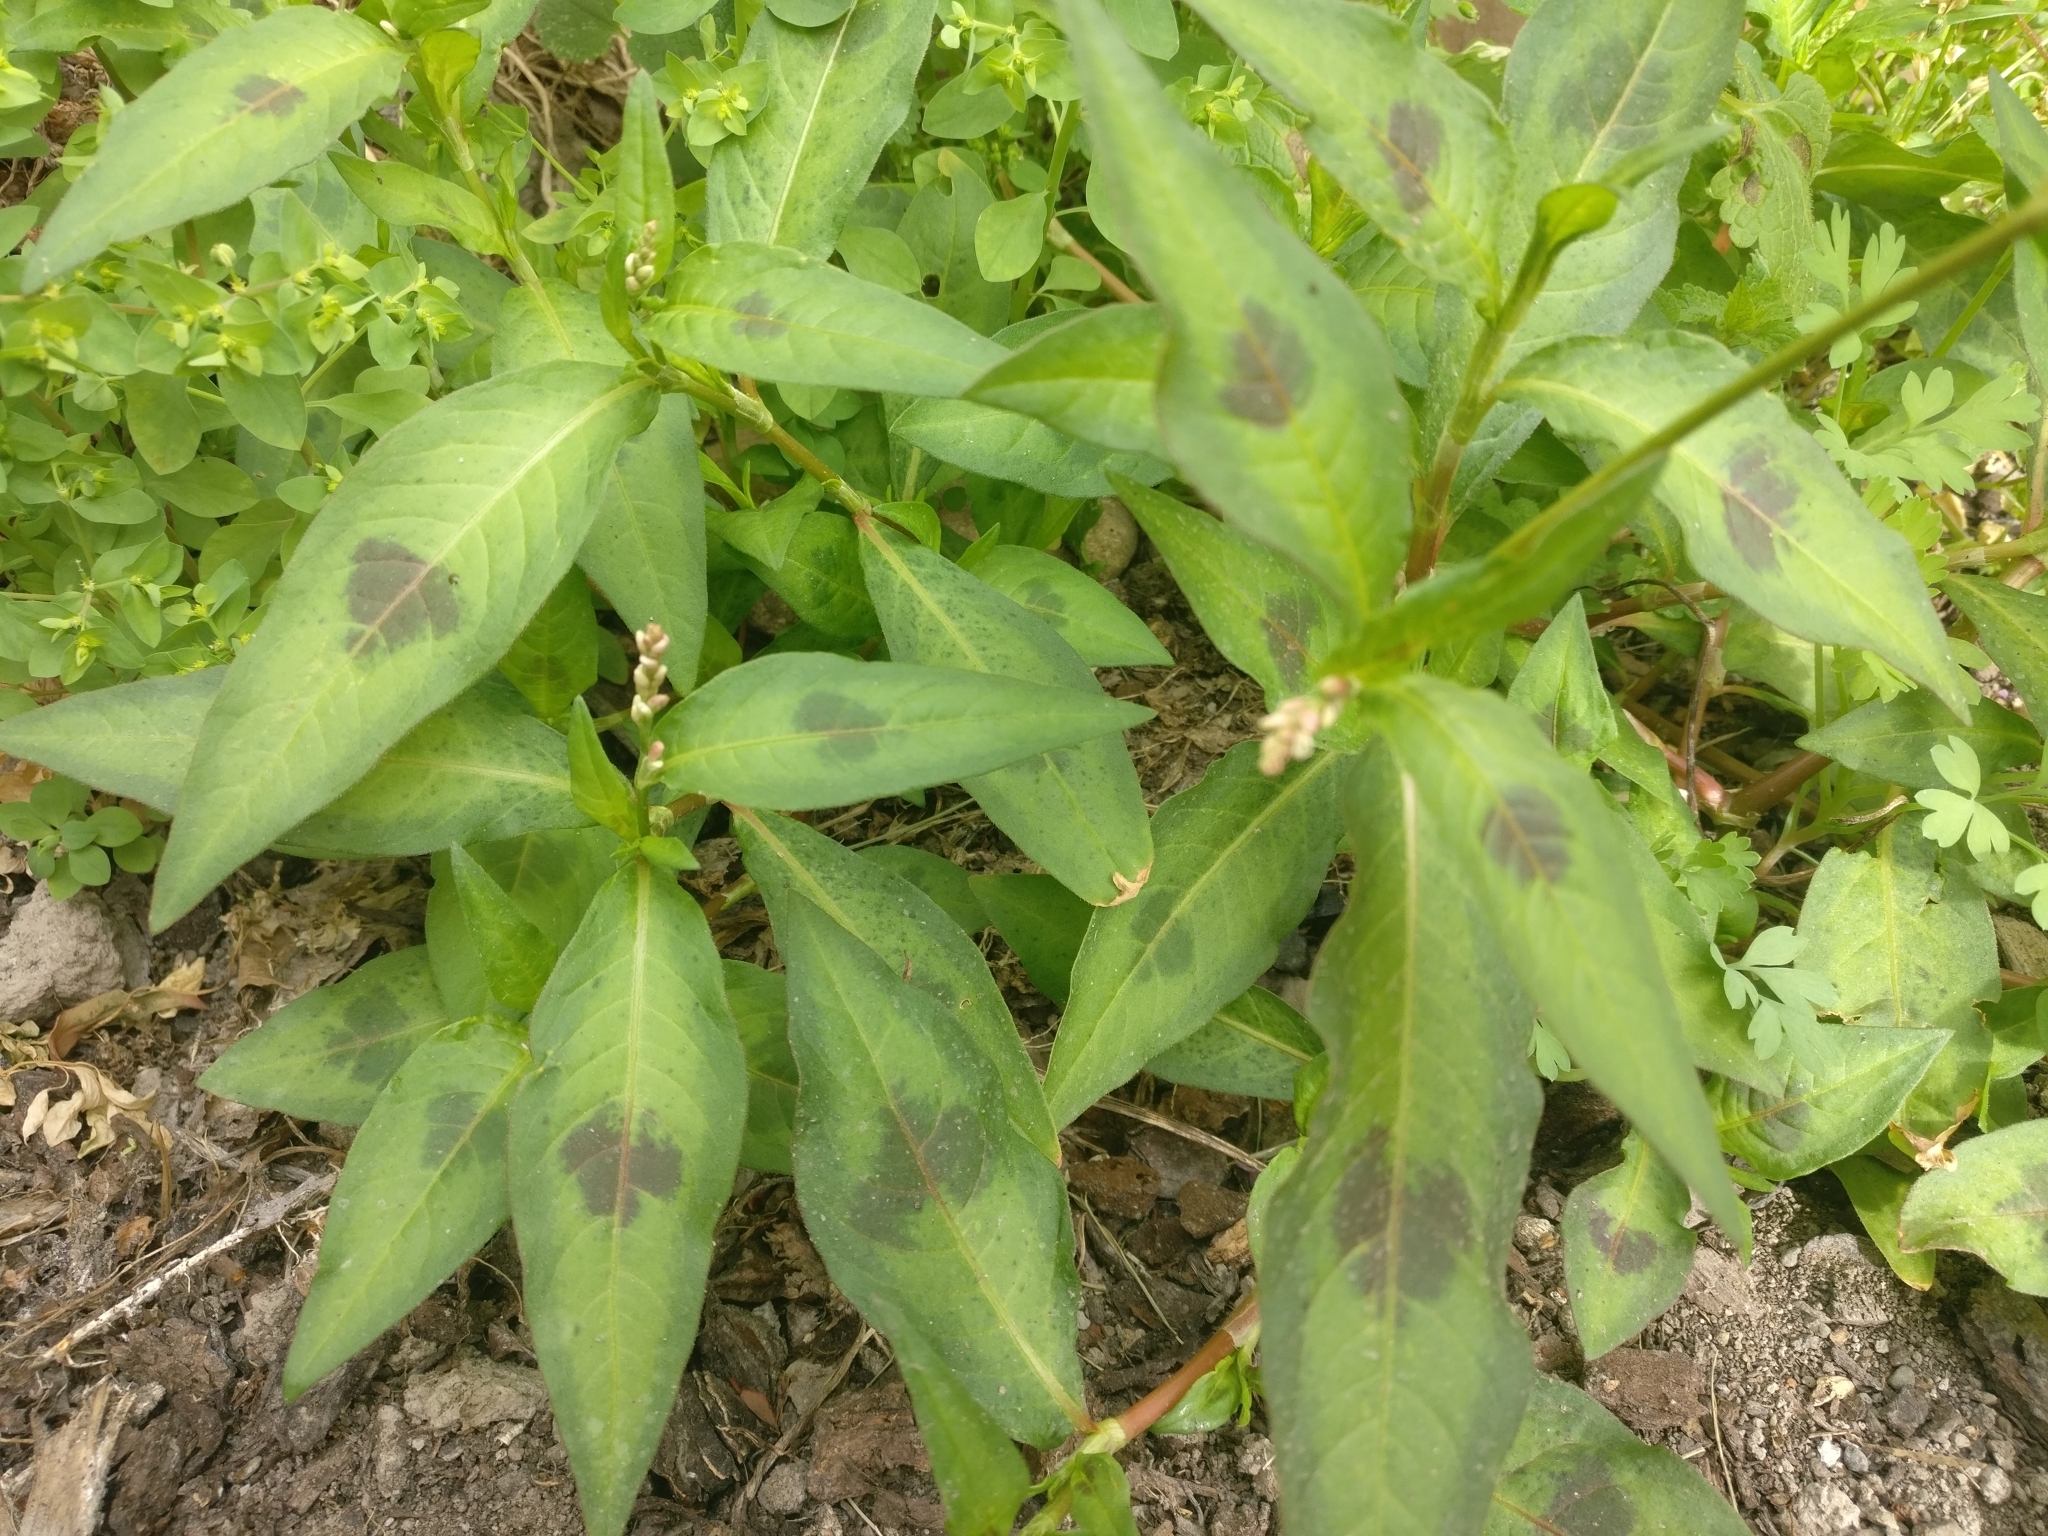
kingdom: Plantae
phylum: Tracheophyta
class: Magnoliopsida
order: Caryophyllales
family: Polygonaceae
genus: Persicaria
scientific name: Persicaria maculosa
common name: Redshank
